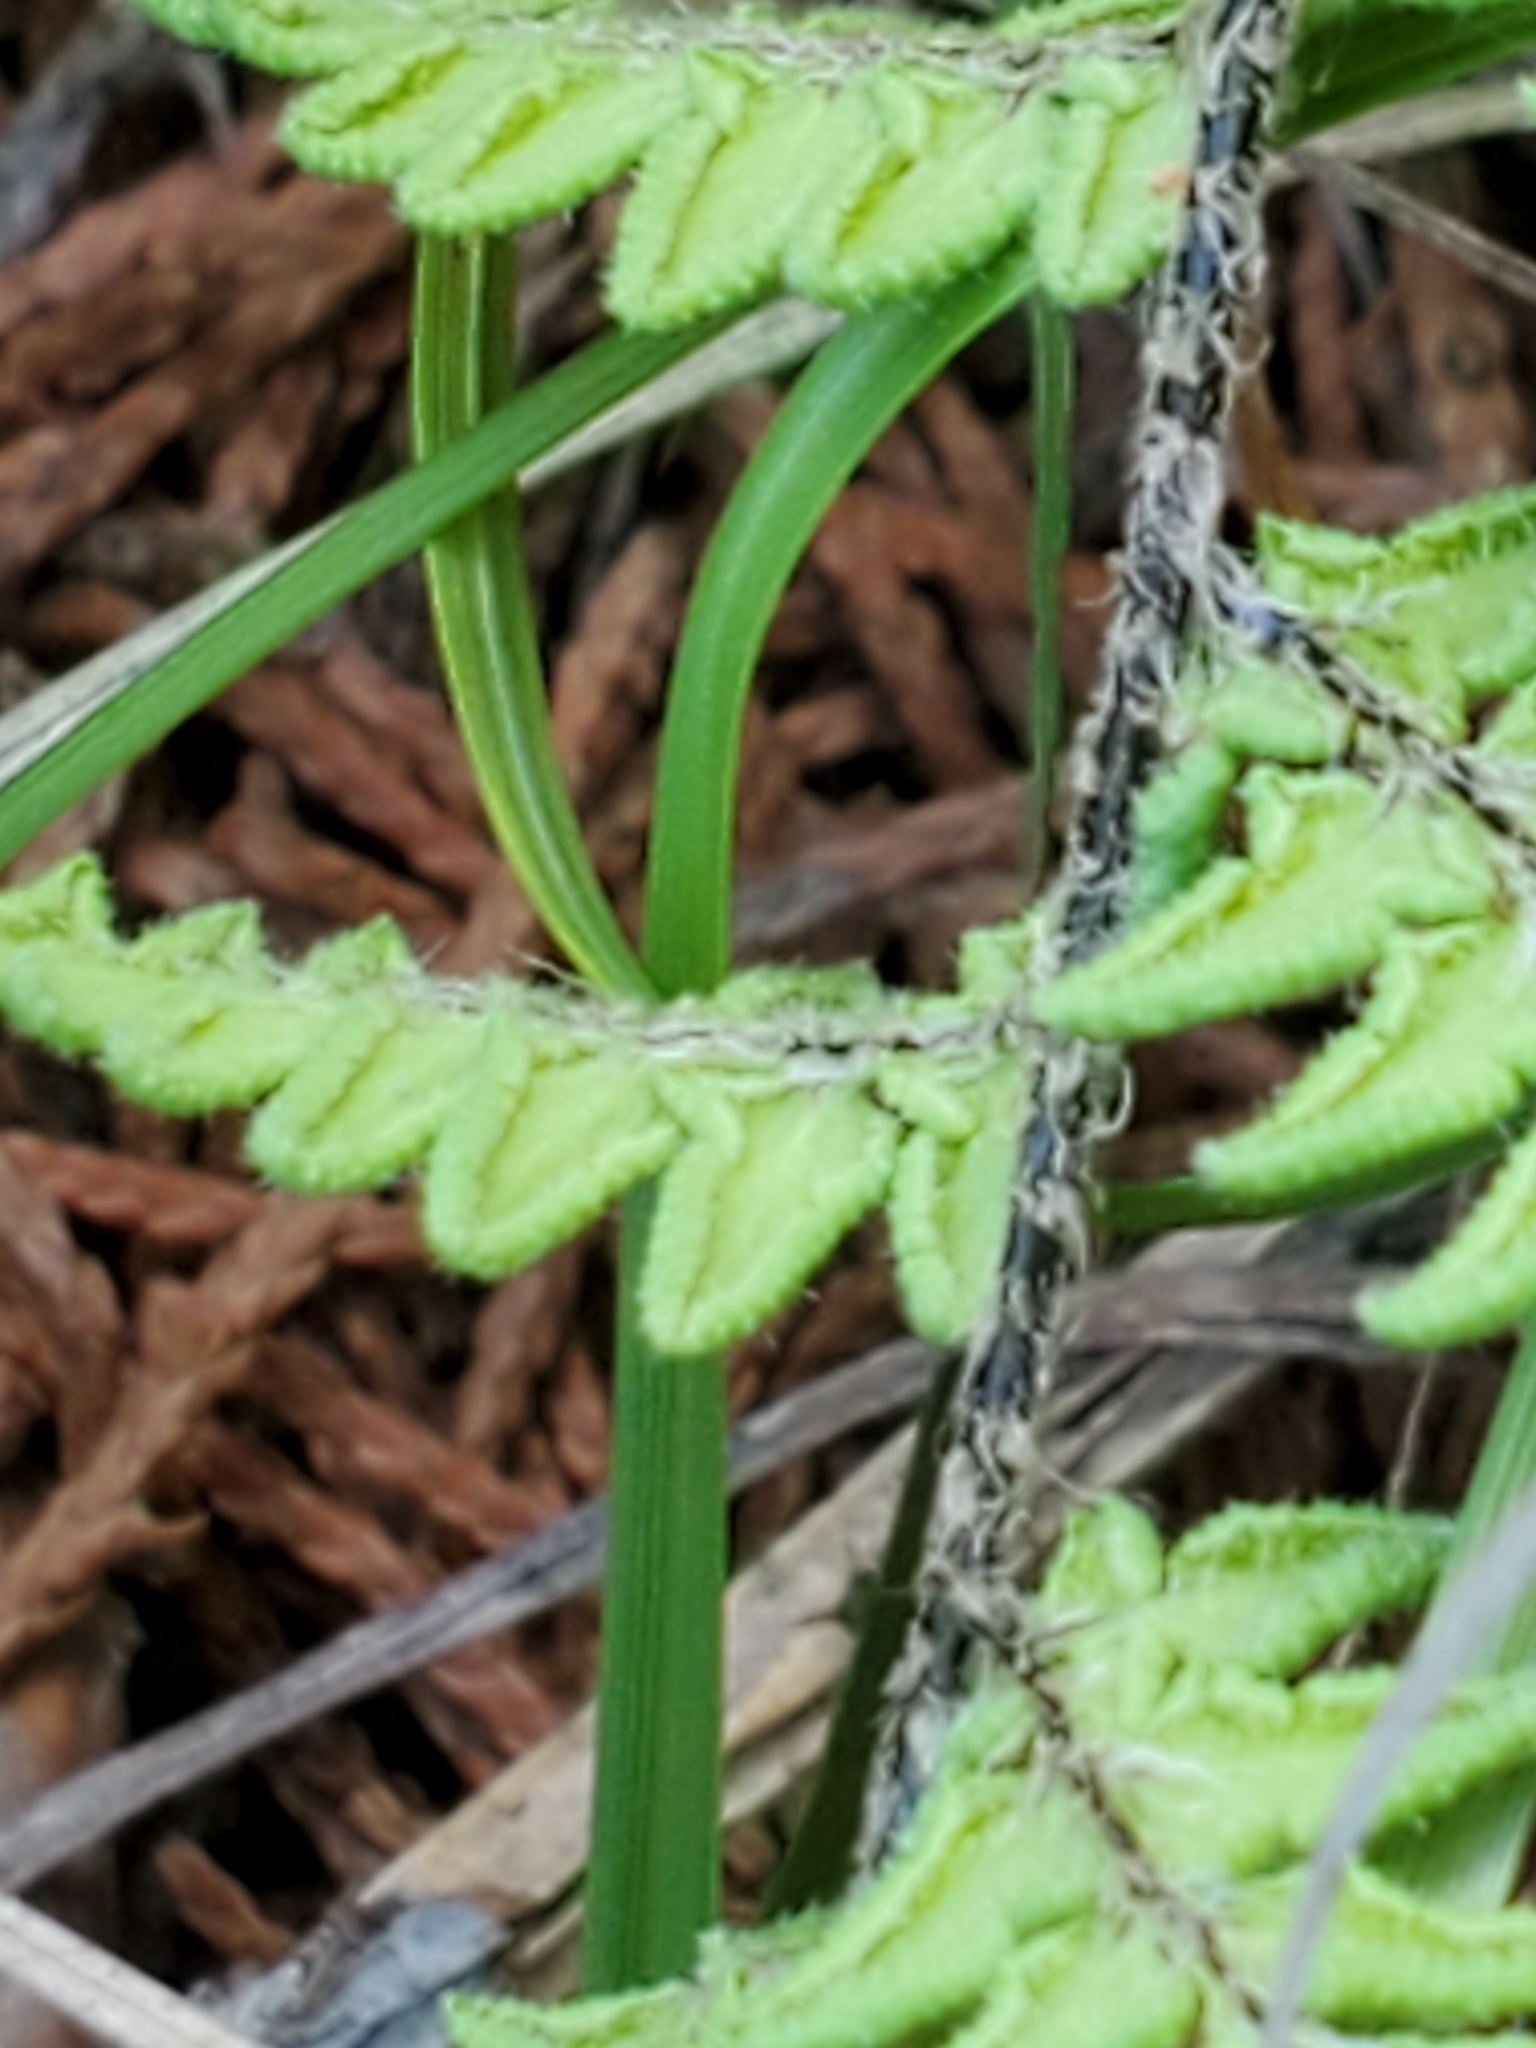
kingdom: Plantae
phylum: Tracheophyta
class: Polypodiopsida
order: Polypodiales
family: Pteridaceae
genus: Myriopteris
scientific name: Myriopteris alabamensis
